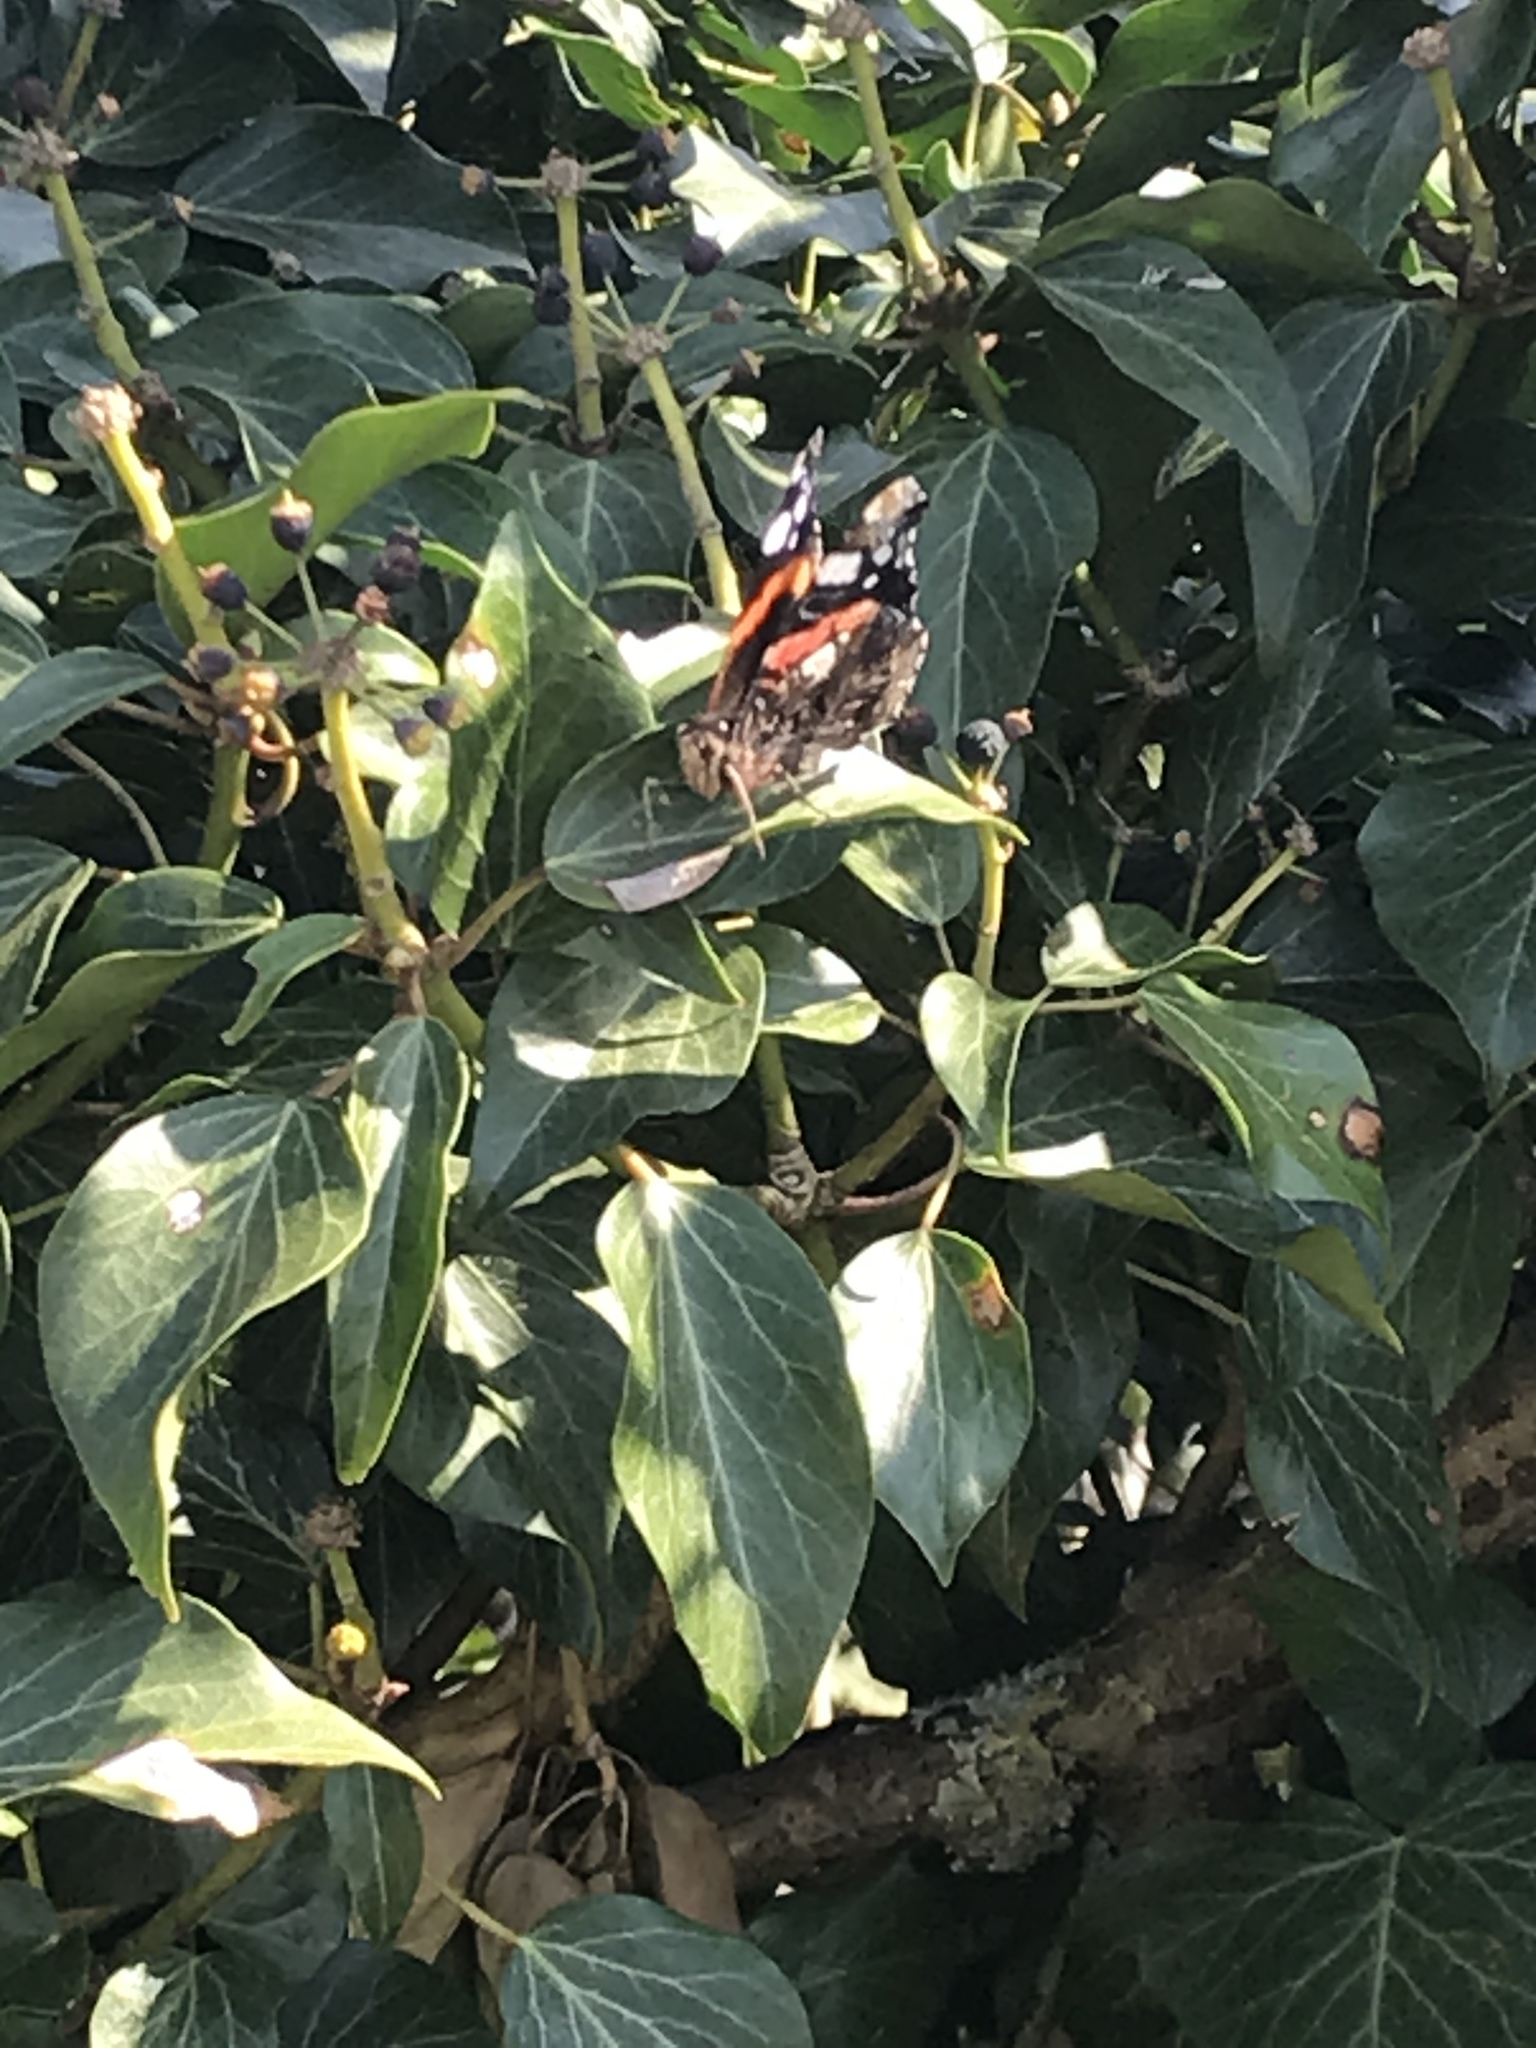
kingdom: Animalia
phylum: Arthropoda
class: Insecta
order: Lepidoptera
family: Nymphalidae
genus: Vanessa
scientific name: Vanessa atalanta
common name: Red admiral
